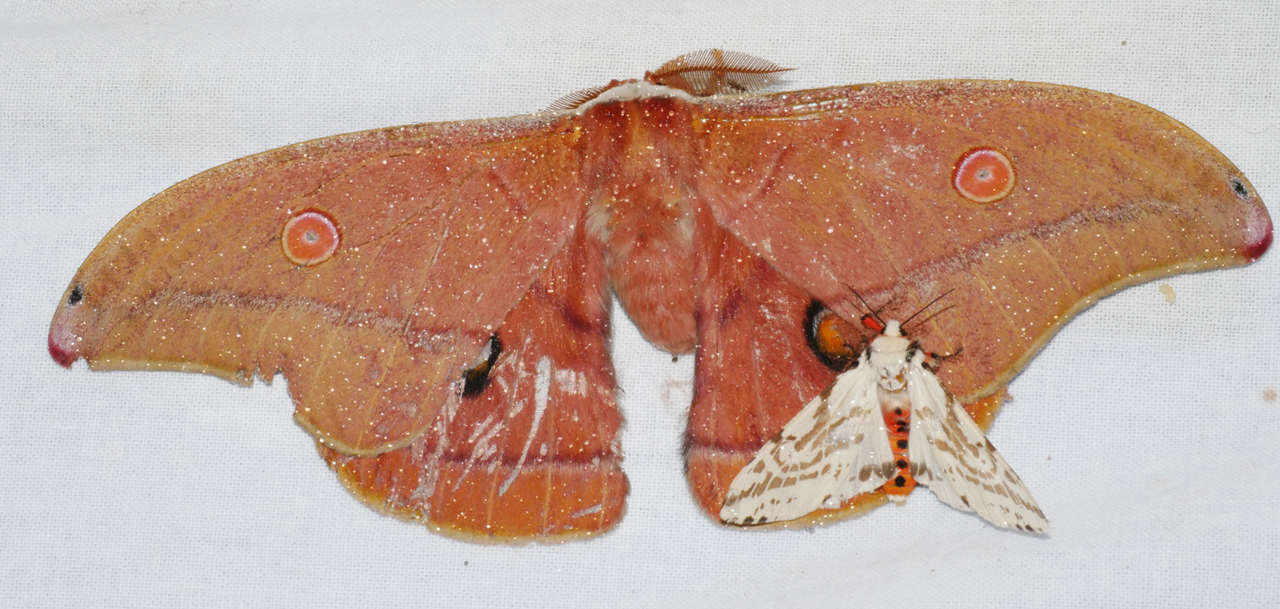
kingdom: Animalia
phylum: Arthropoda
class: Insecta
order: Lepidoptera
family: Saturniidae
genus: Opodiphthera
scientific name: Opodiphthera
